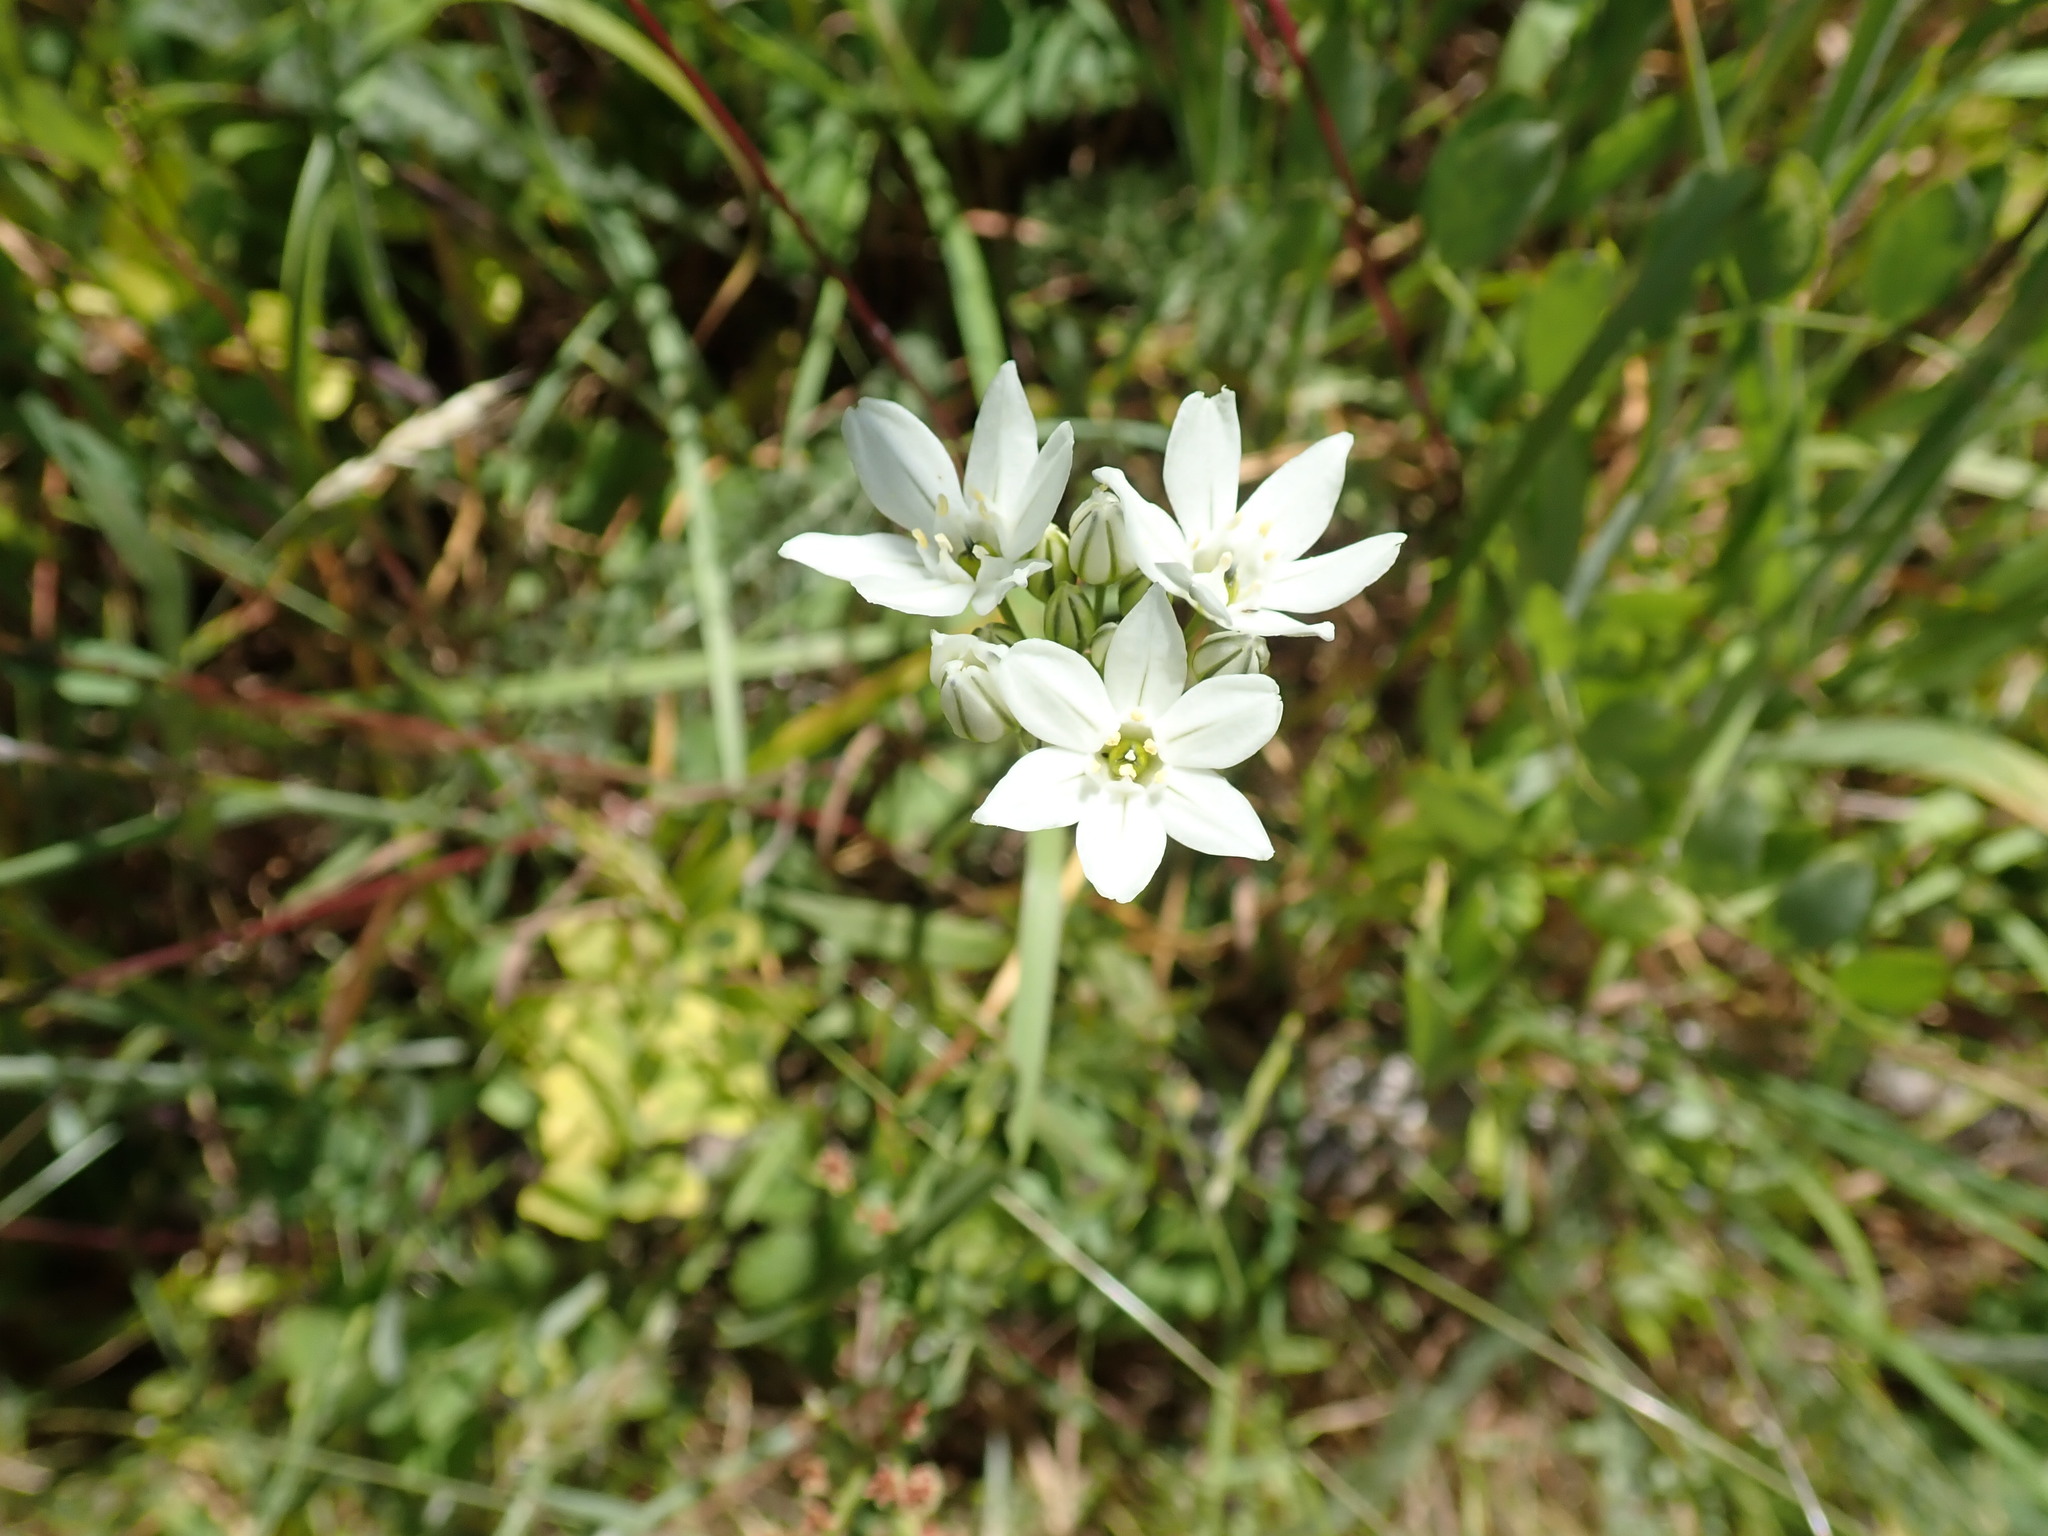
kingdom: Plantae
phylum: Tracheophyta
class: Liliopsida
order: Asparagales
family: Asparagaceae
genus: Triteleia
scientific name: Triteleia hyacinthina
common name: White brodiaea
